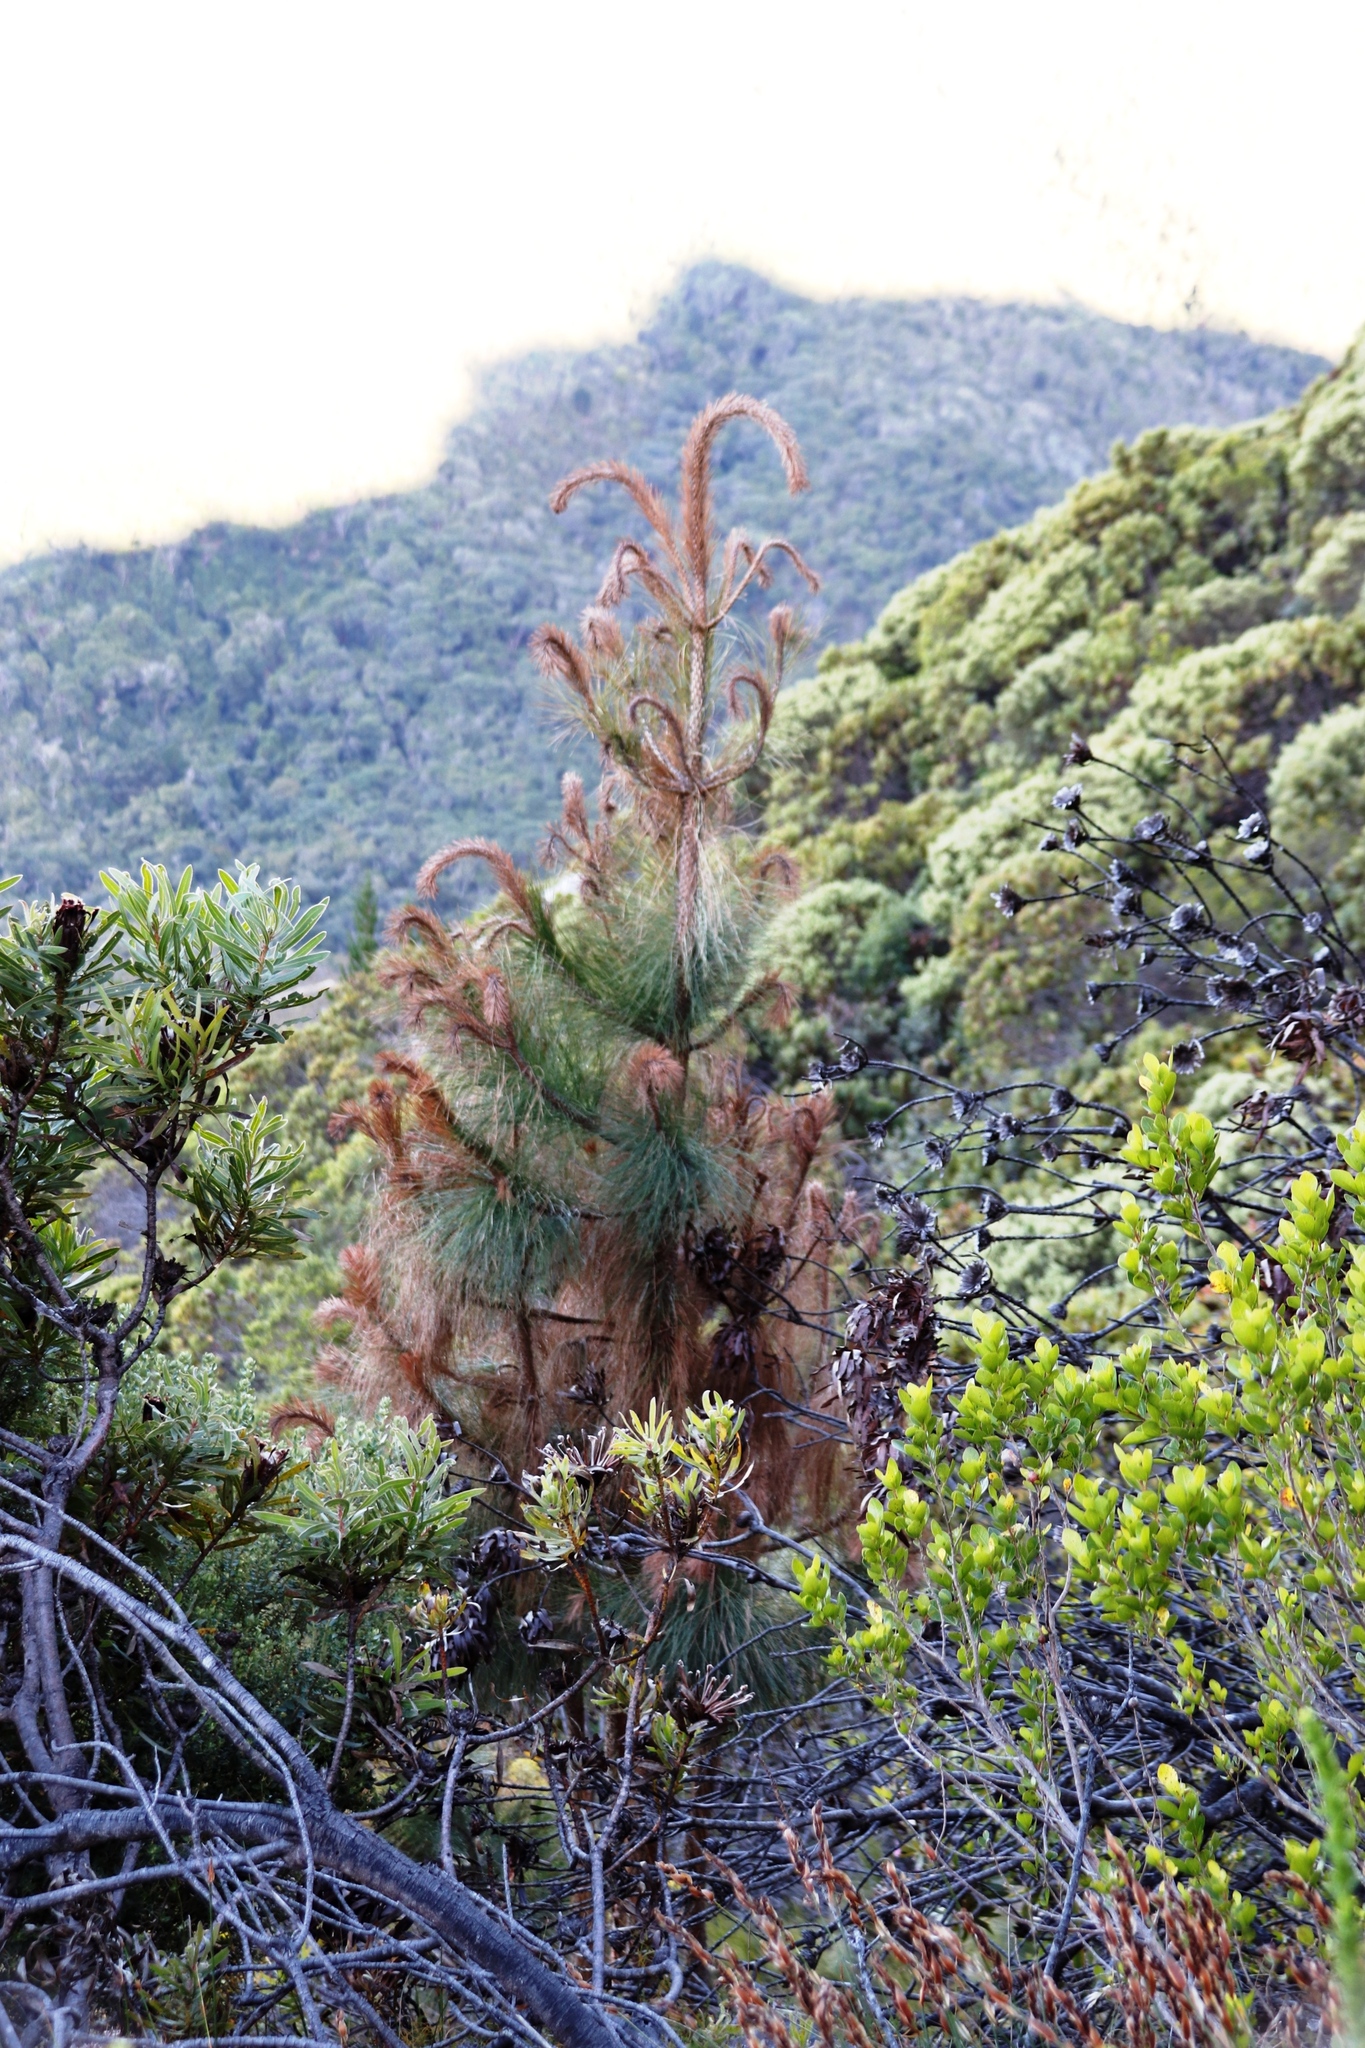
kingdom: Plantae
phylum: Tracheophyta
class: Pinopsida
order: Pinales
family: Pinaceae
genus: Pinus
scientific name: Pinus radiata
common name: Monterey pine
